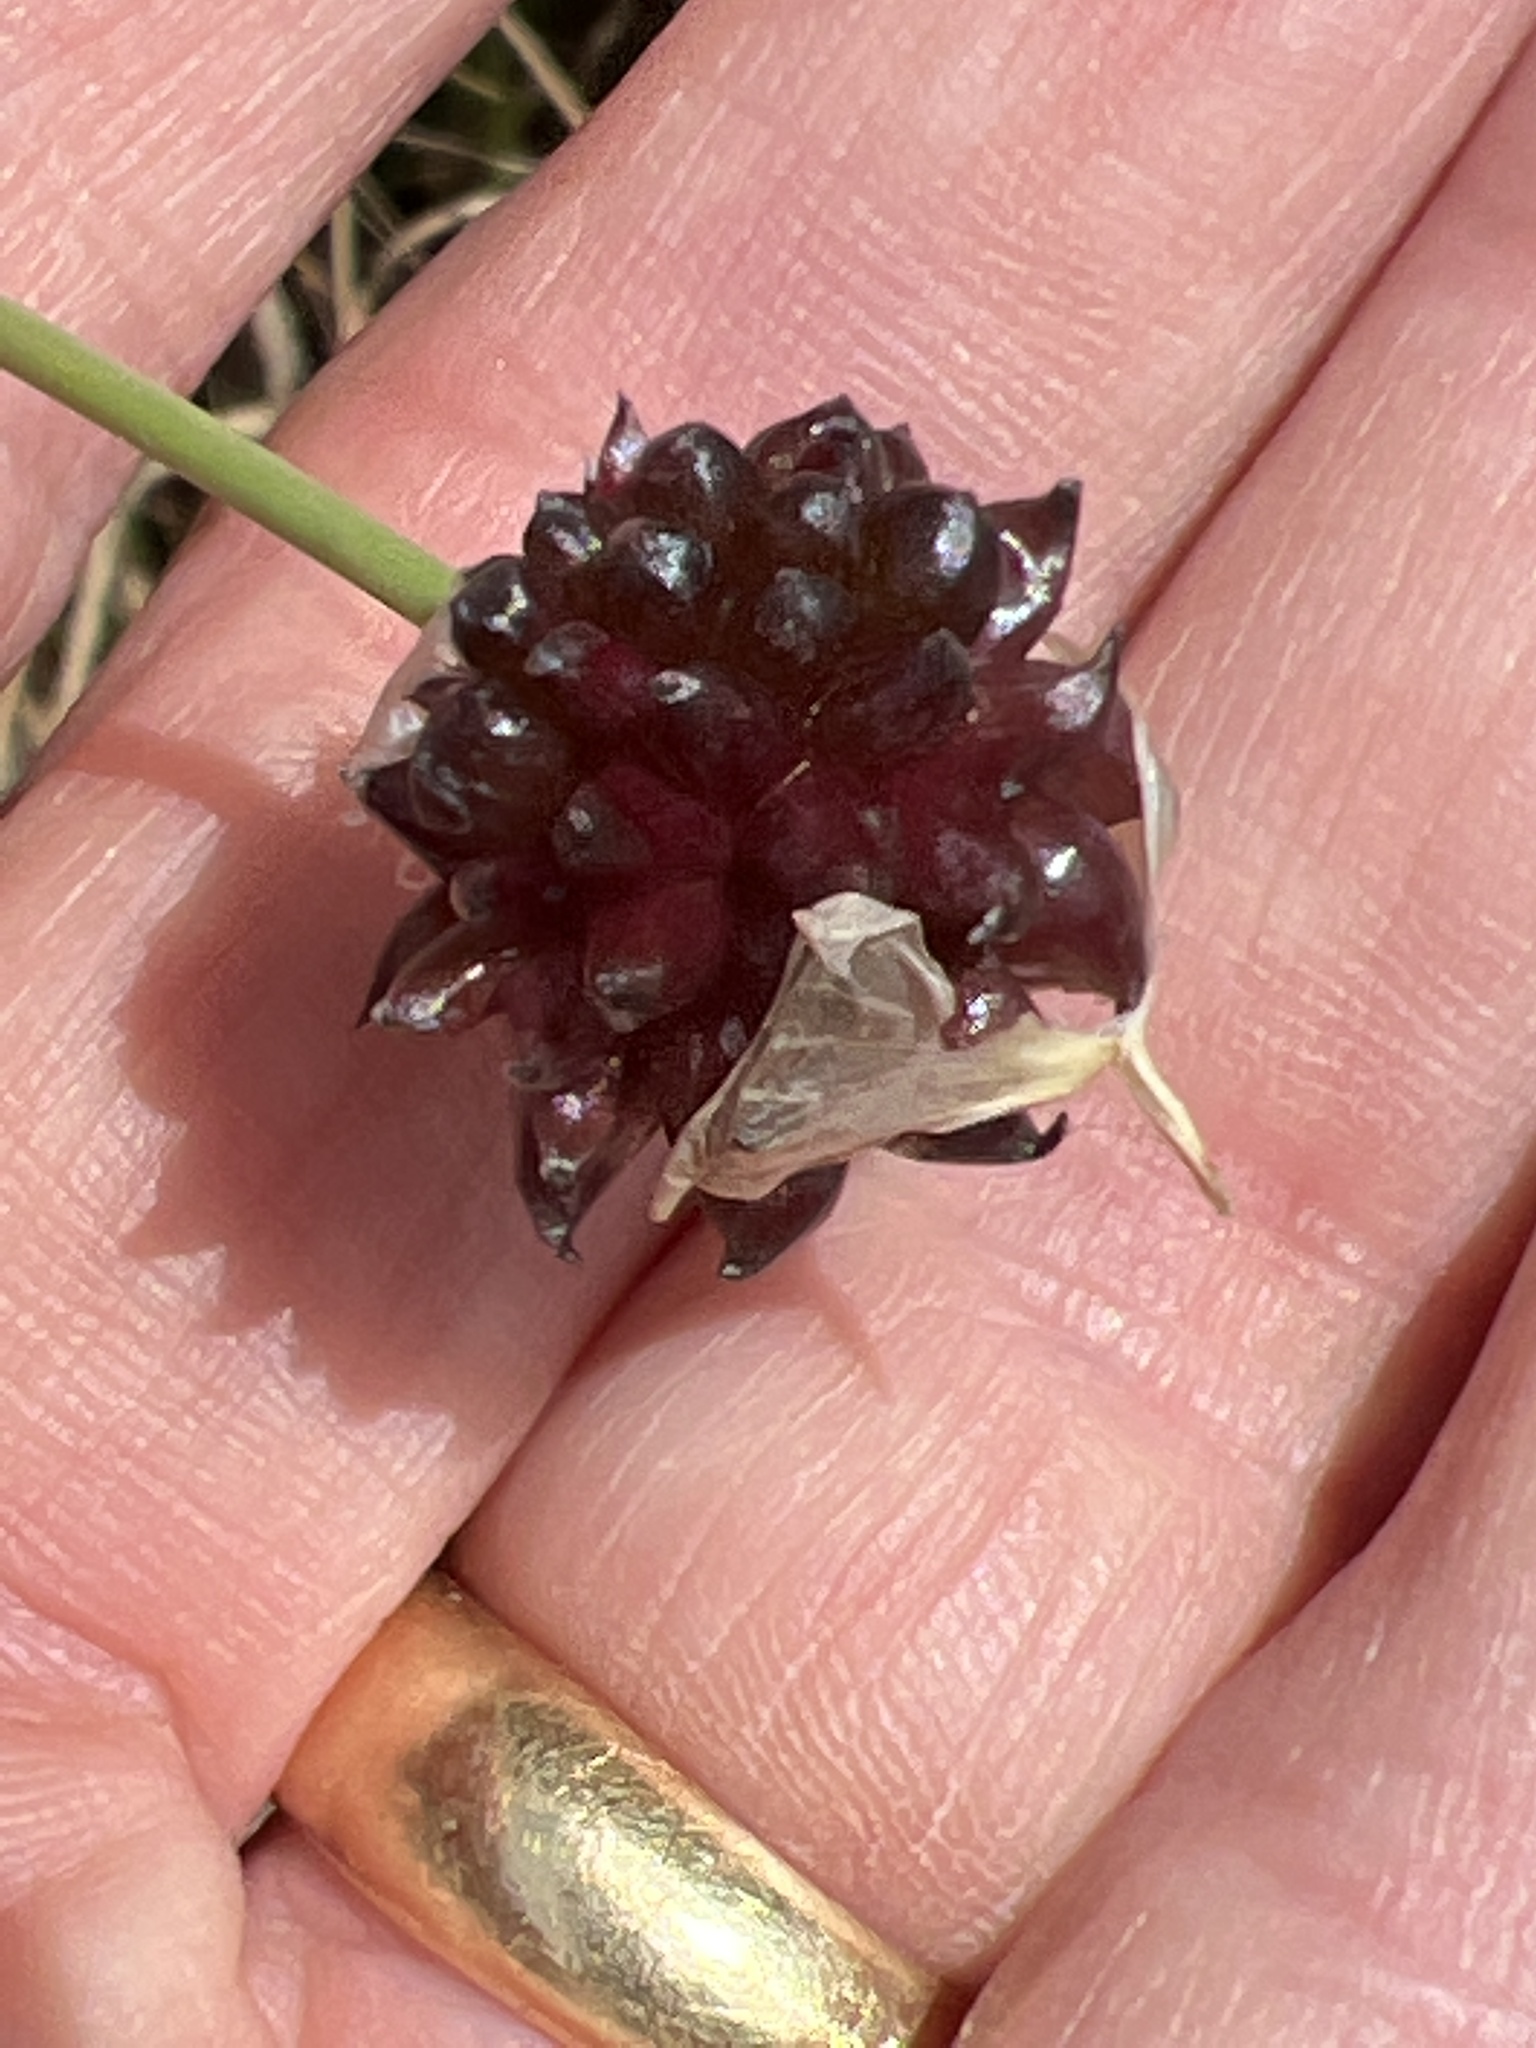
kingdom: Plantae
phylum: Tracheophyta
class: Liliopsida
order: Asparagales
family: Amaryllidaceae
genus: Allium
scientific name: Allium vineale
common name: Crow garlic
